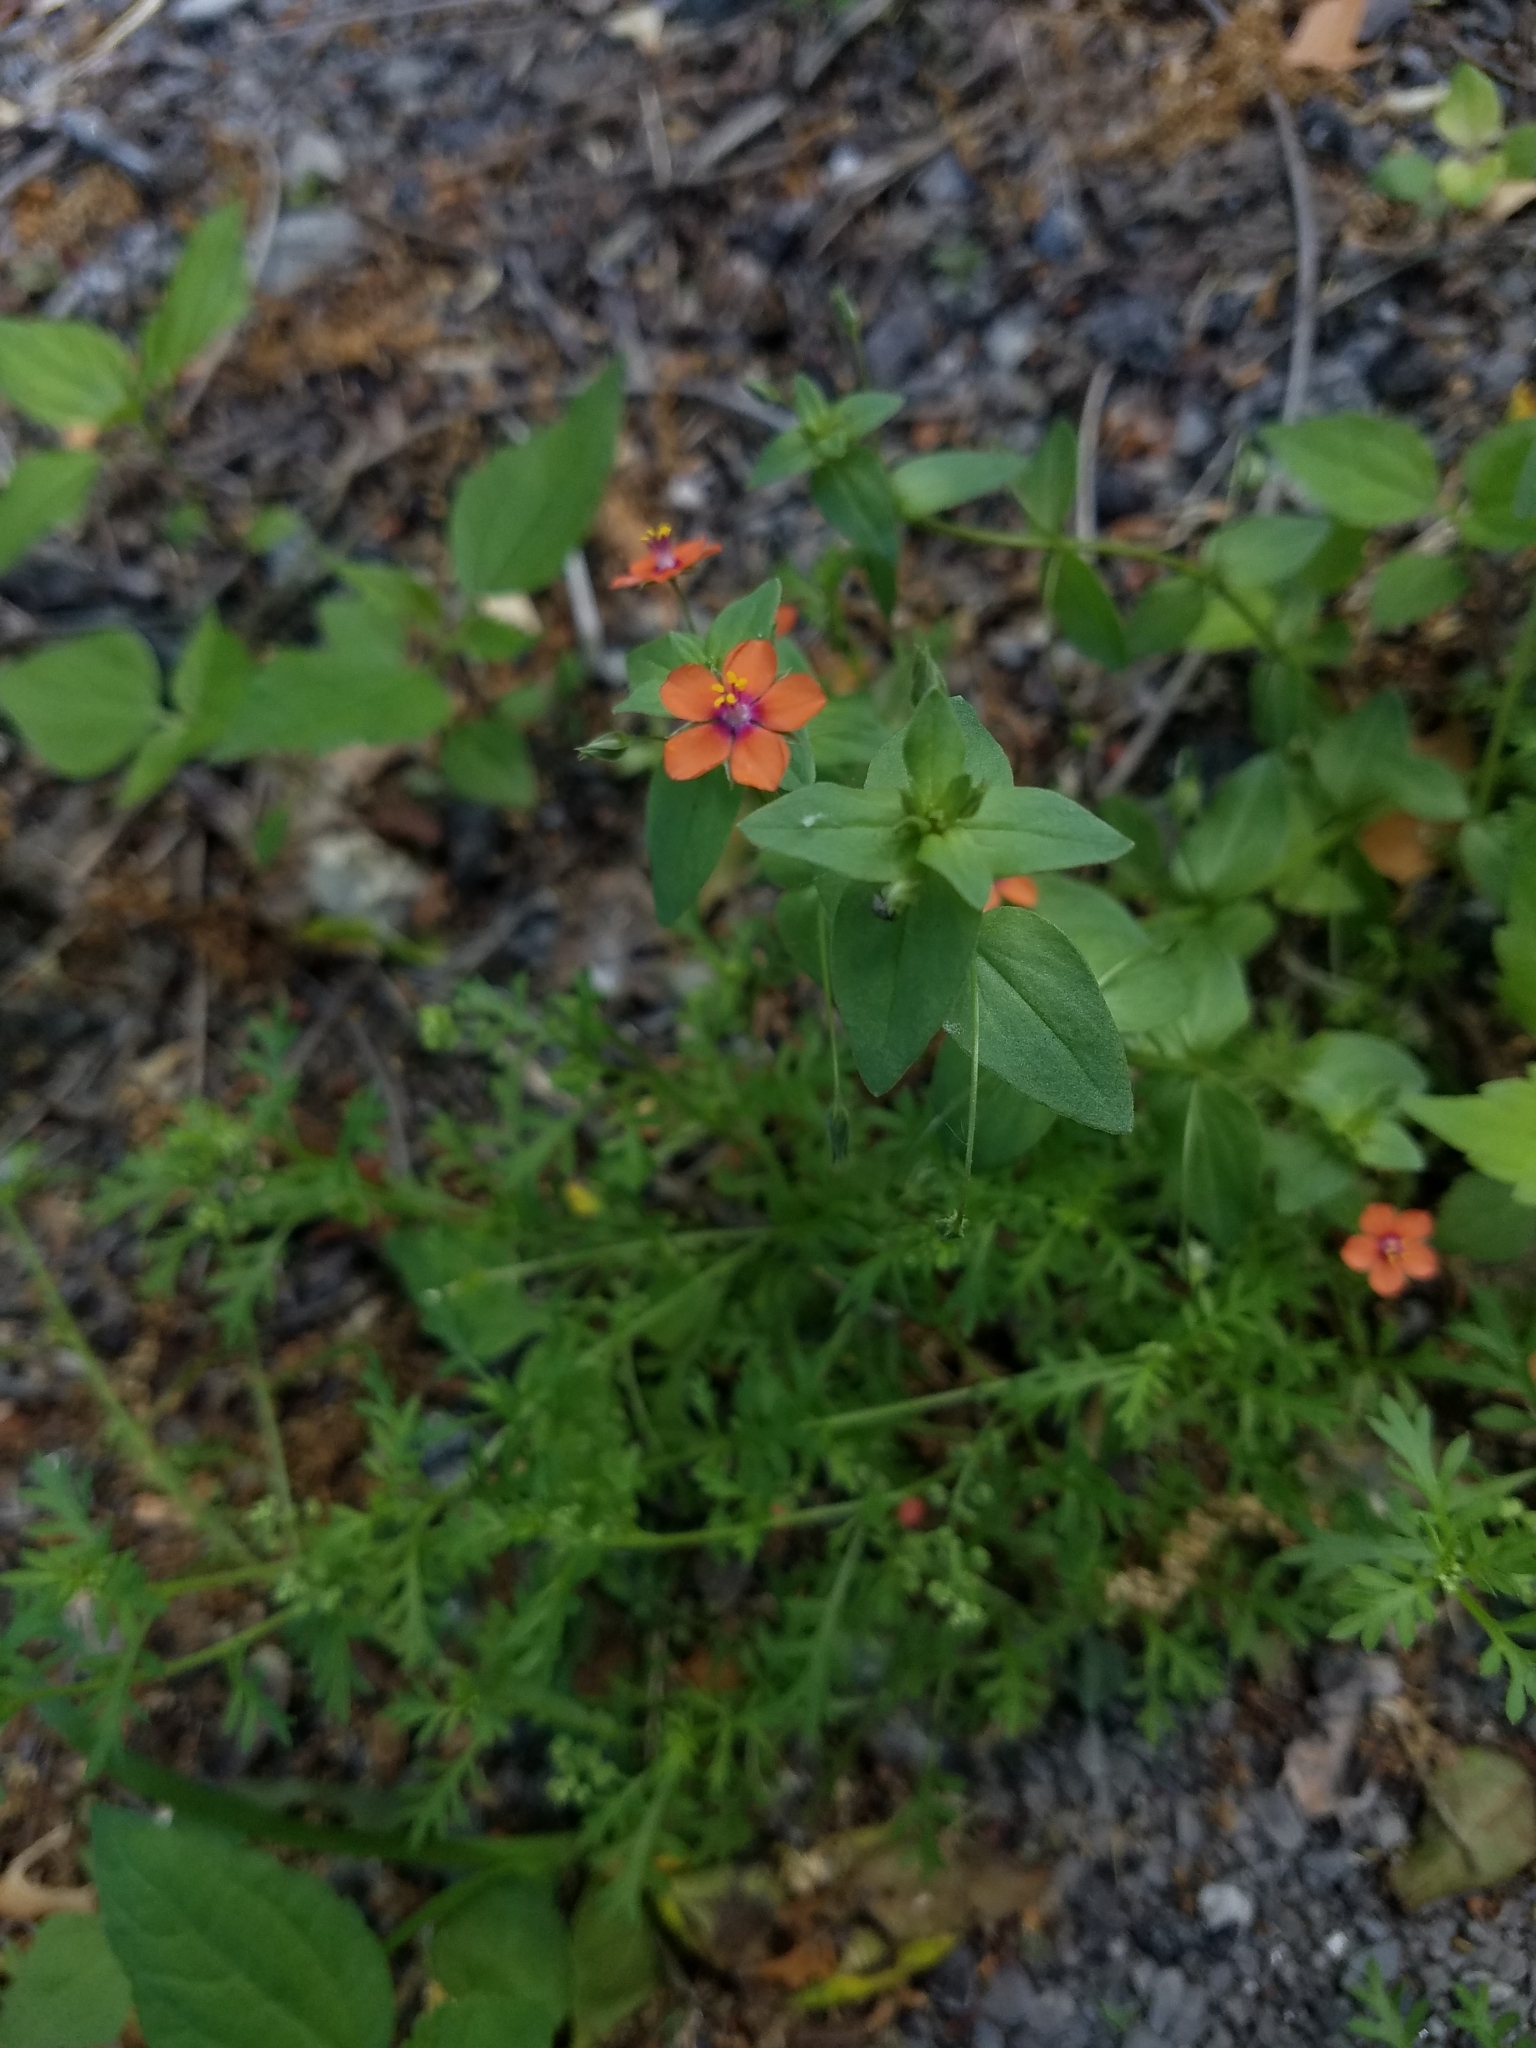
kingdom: Plantae
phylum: Tracheophyta
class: Magnoliopsida
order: Ericales
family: Primulaceae
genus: Lysimachia
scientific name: Lysimachia arvensis
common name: Scarlet pimpernel
